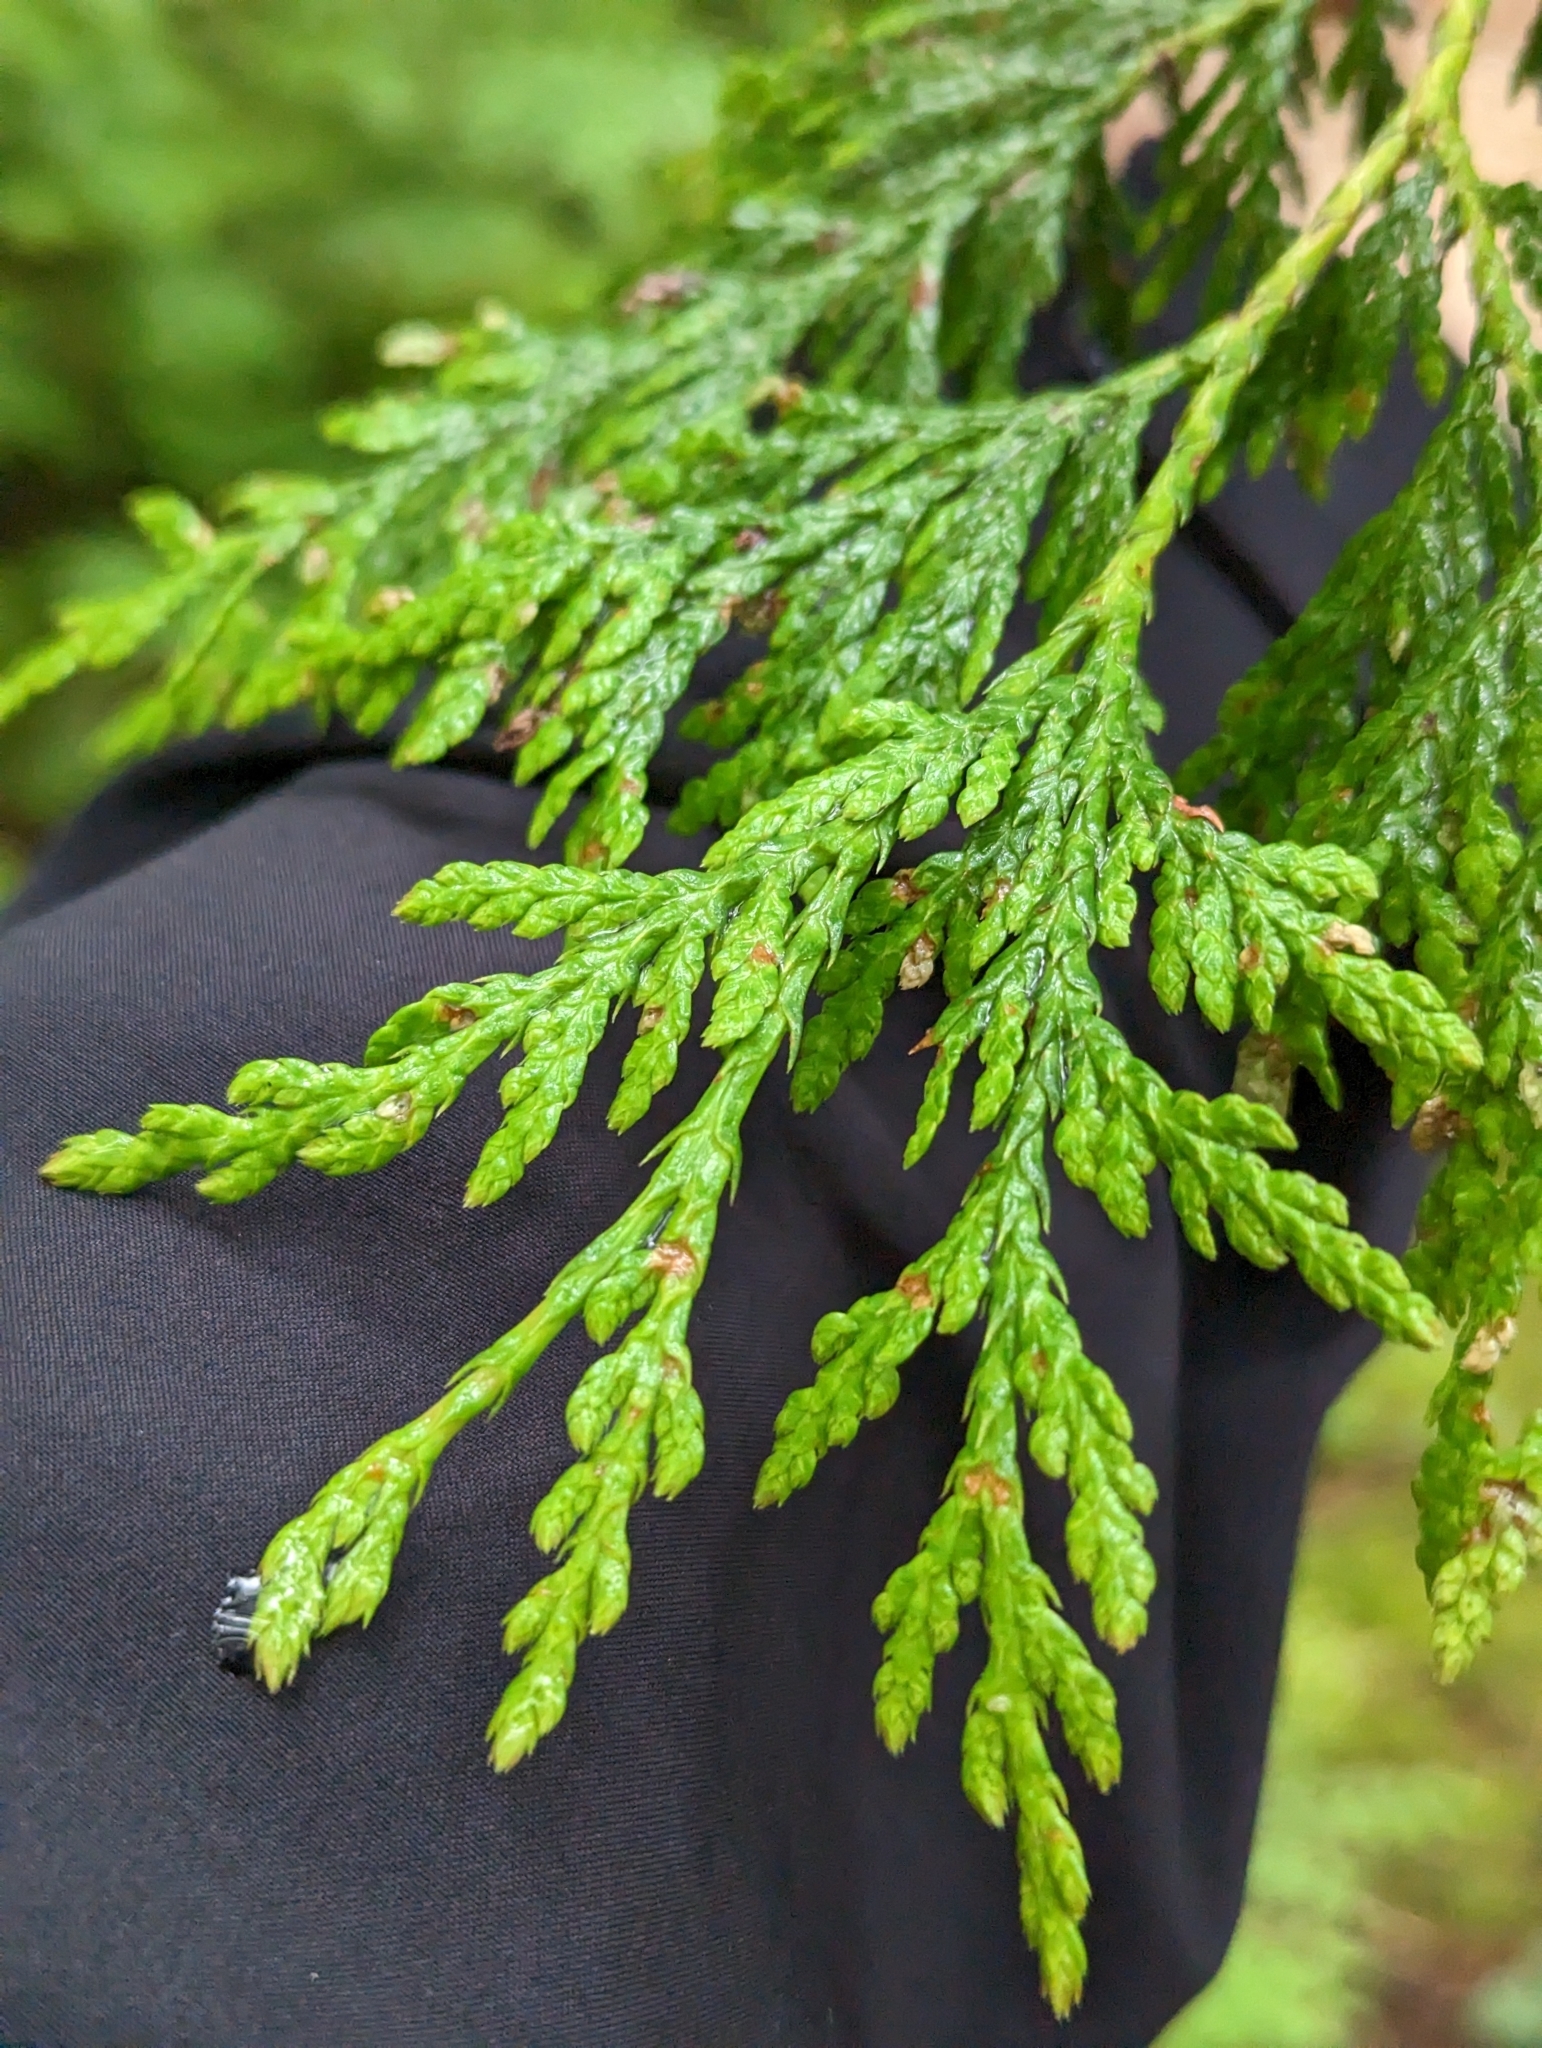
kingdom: Plantae
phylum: Tracheophyta
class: Pinopsida
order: Pinales
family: Cupressaceae
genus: Thuja
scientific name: Thuja plicata
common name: Western red-cedar
